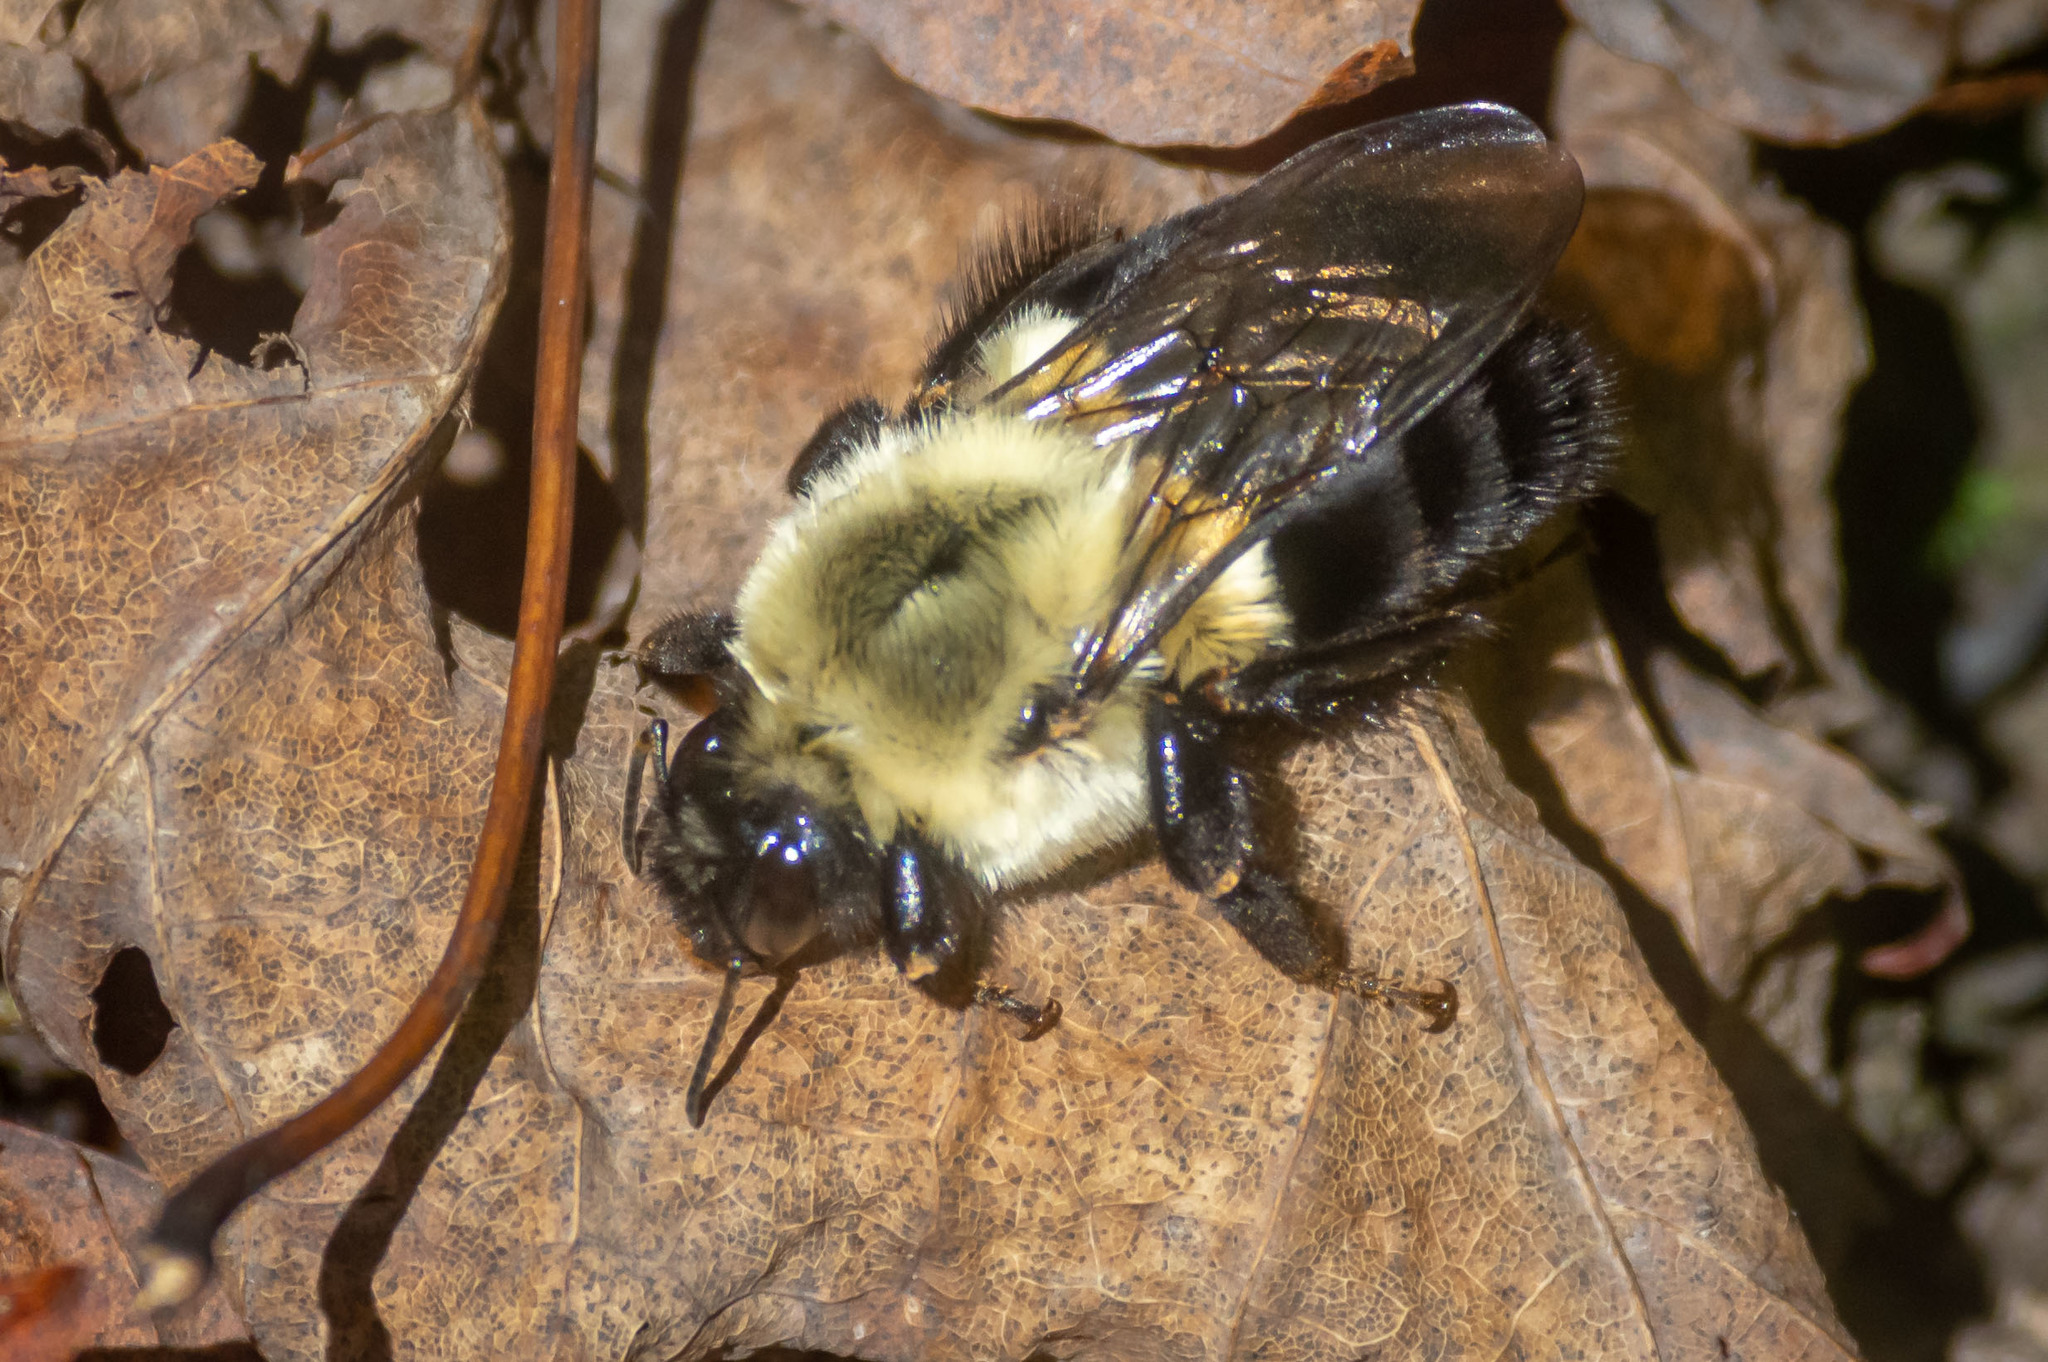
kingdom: Animalia
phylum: Arthropoda
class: Insecta
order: Hymenoptera
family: Apidae
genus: Bombus
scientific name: Bombus impatiens
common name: Common eastern bumble bee
